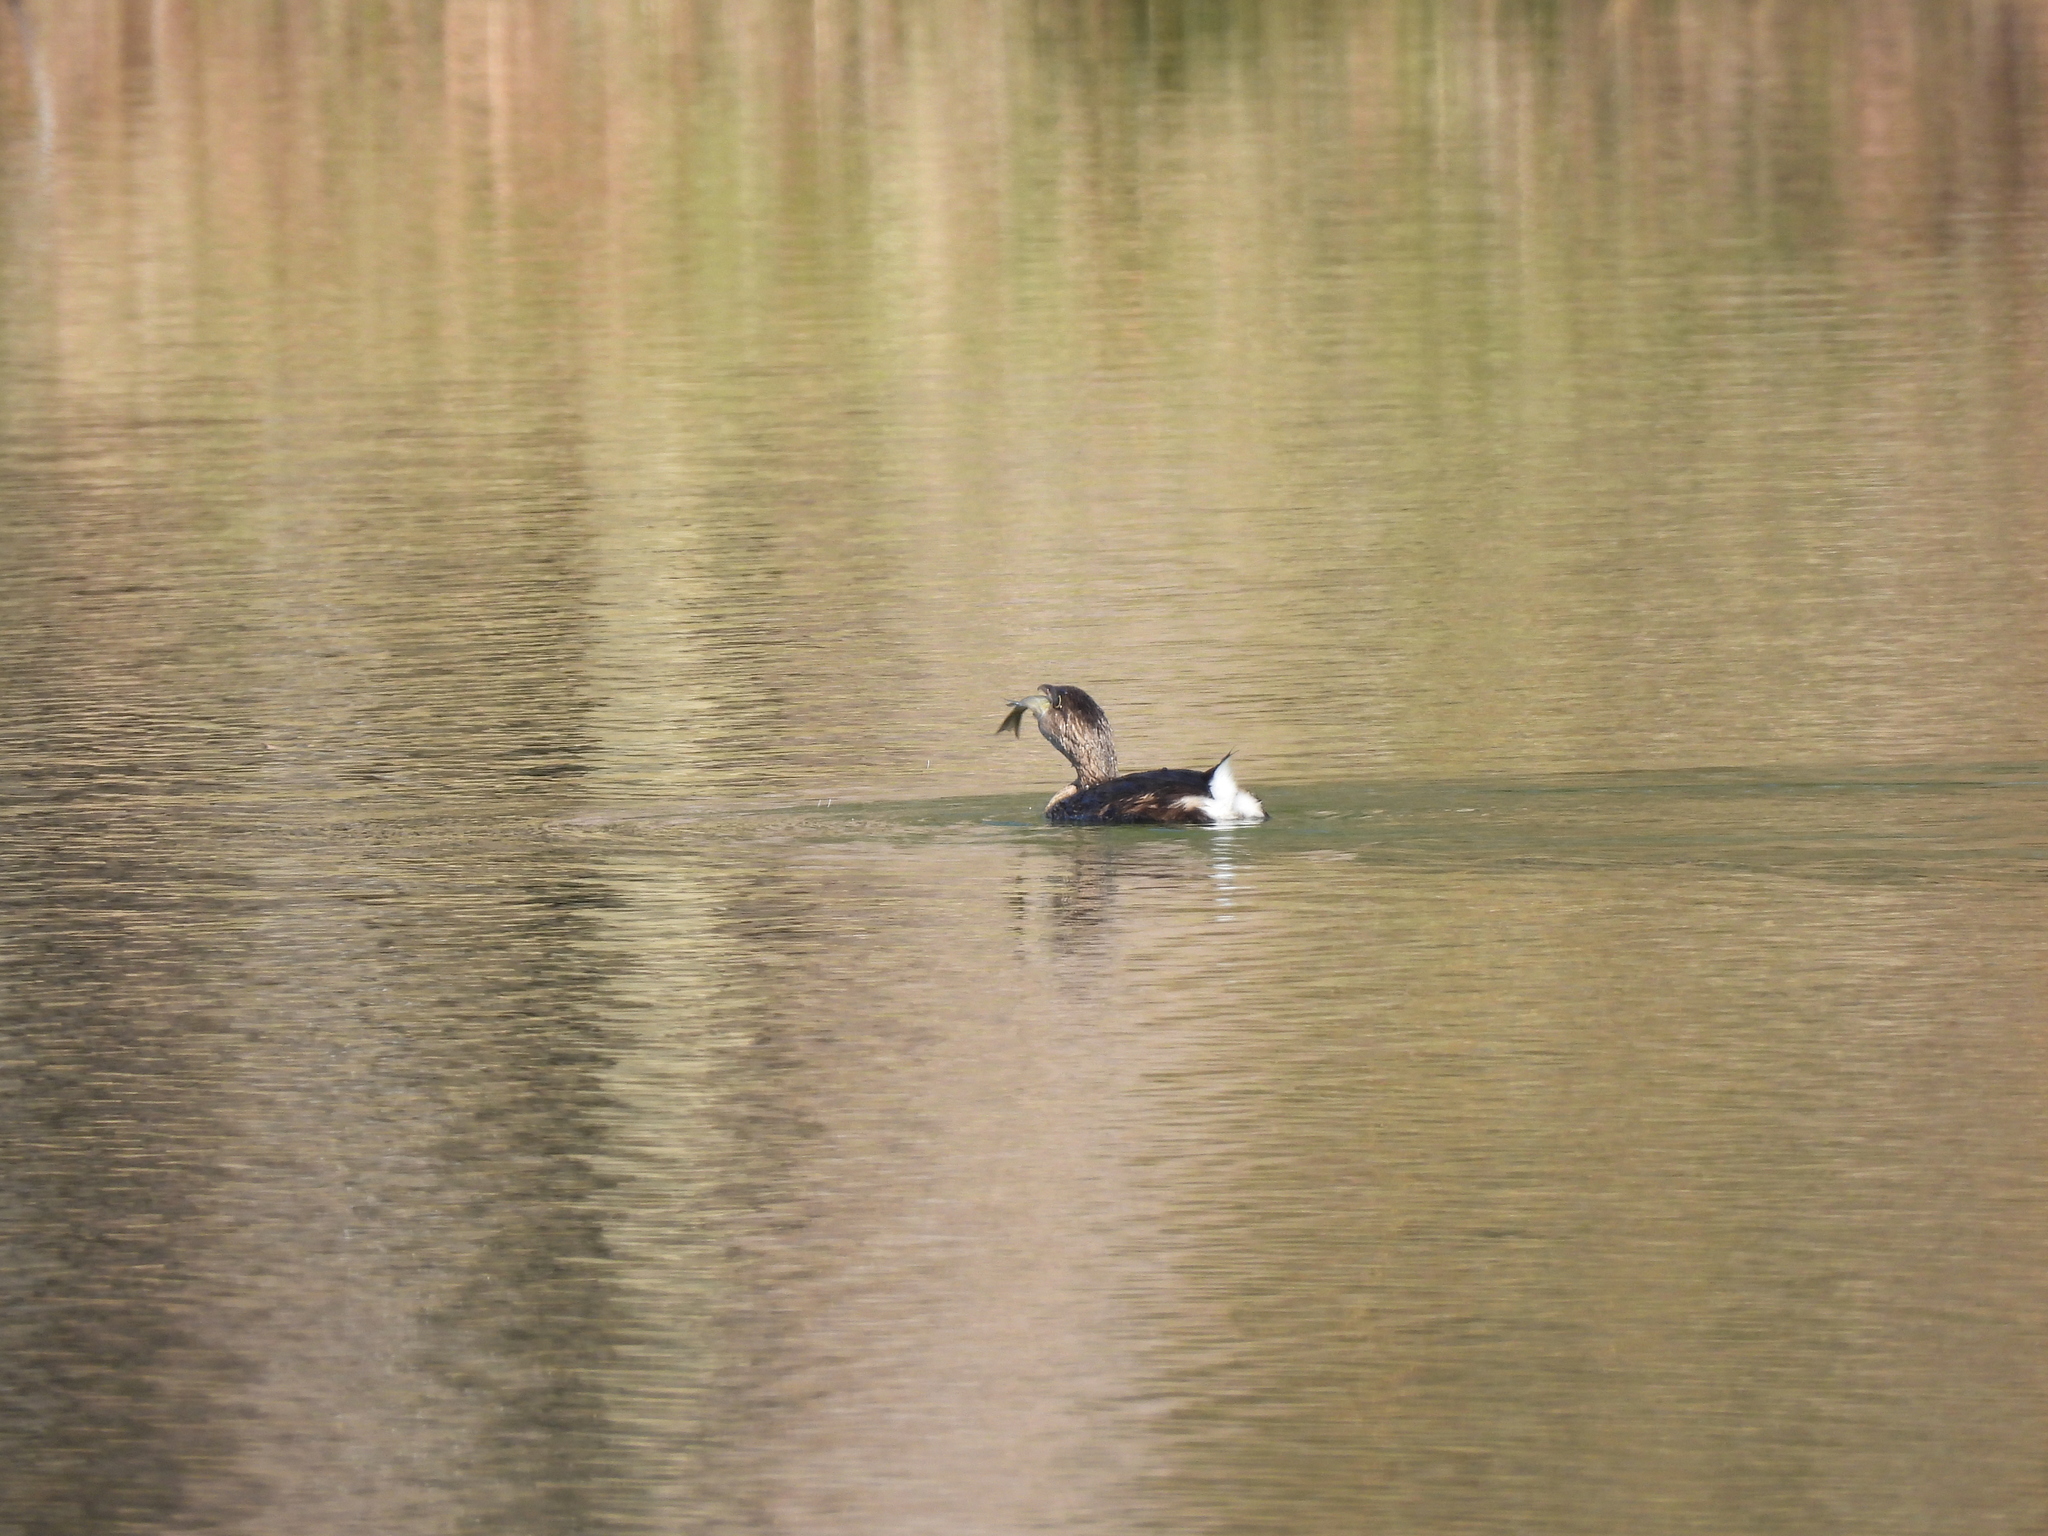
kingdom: Animalia
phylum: Chordata
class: Aves
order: Podicipediformes
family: Podicipedidae
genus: Podilymbus
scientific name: Podilymbus podiceps
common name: Pied-billed grebe
